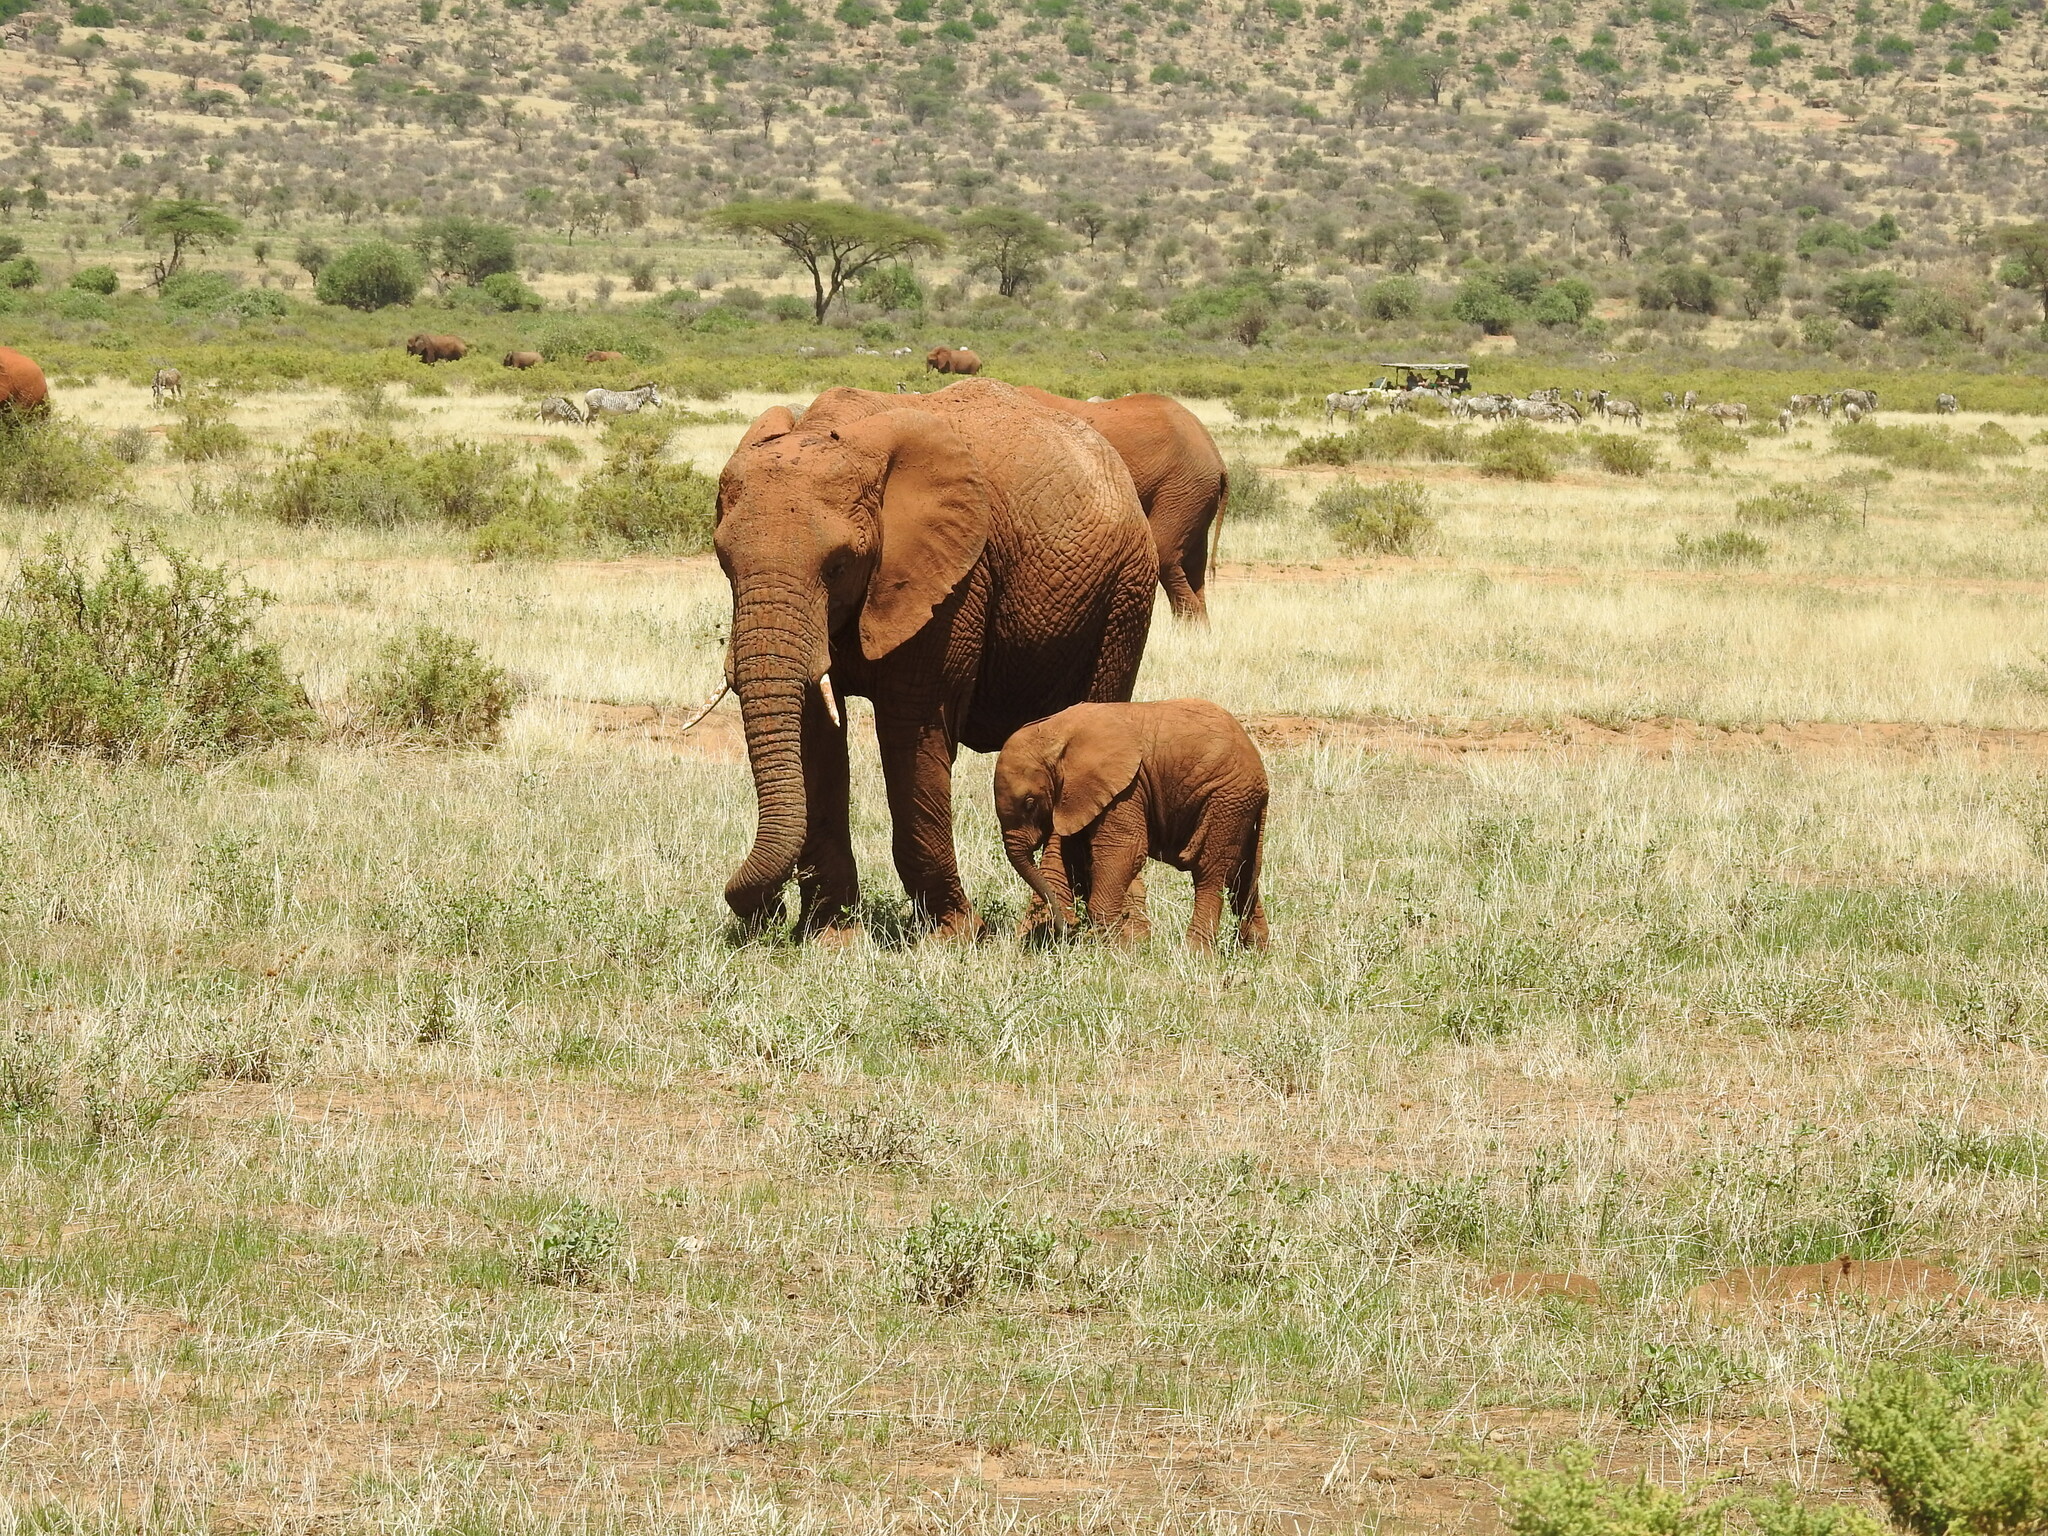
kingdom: Animalia
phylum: Chordata
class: Mammalia
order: Proboscidea
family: Elephantidae
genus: Loxodonta
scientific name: Loxodonta africana
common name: African elephant
